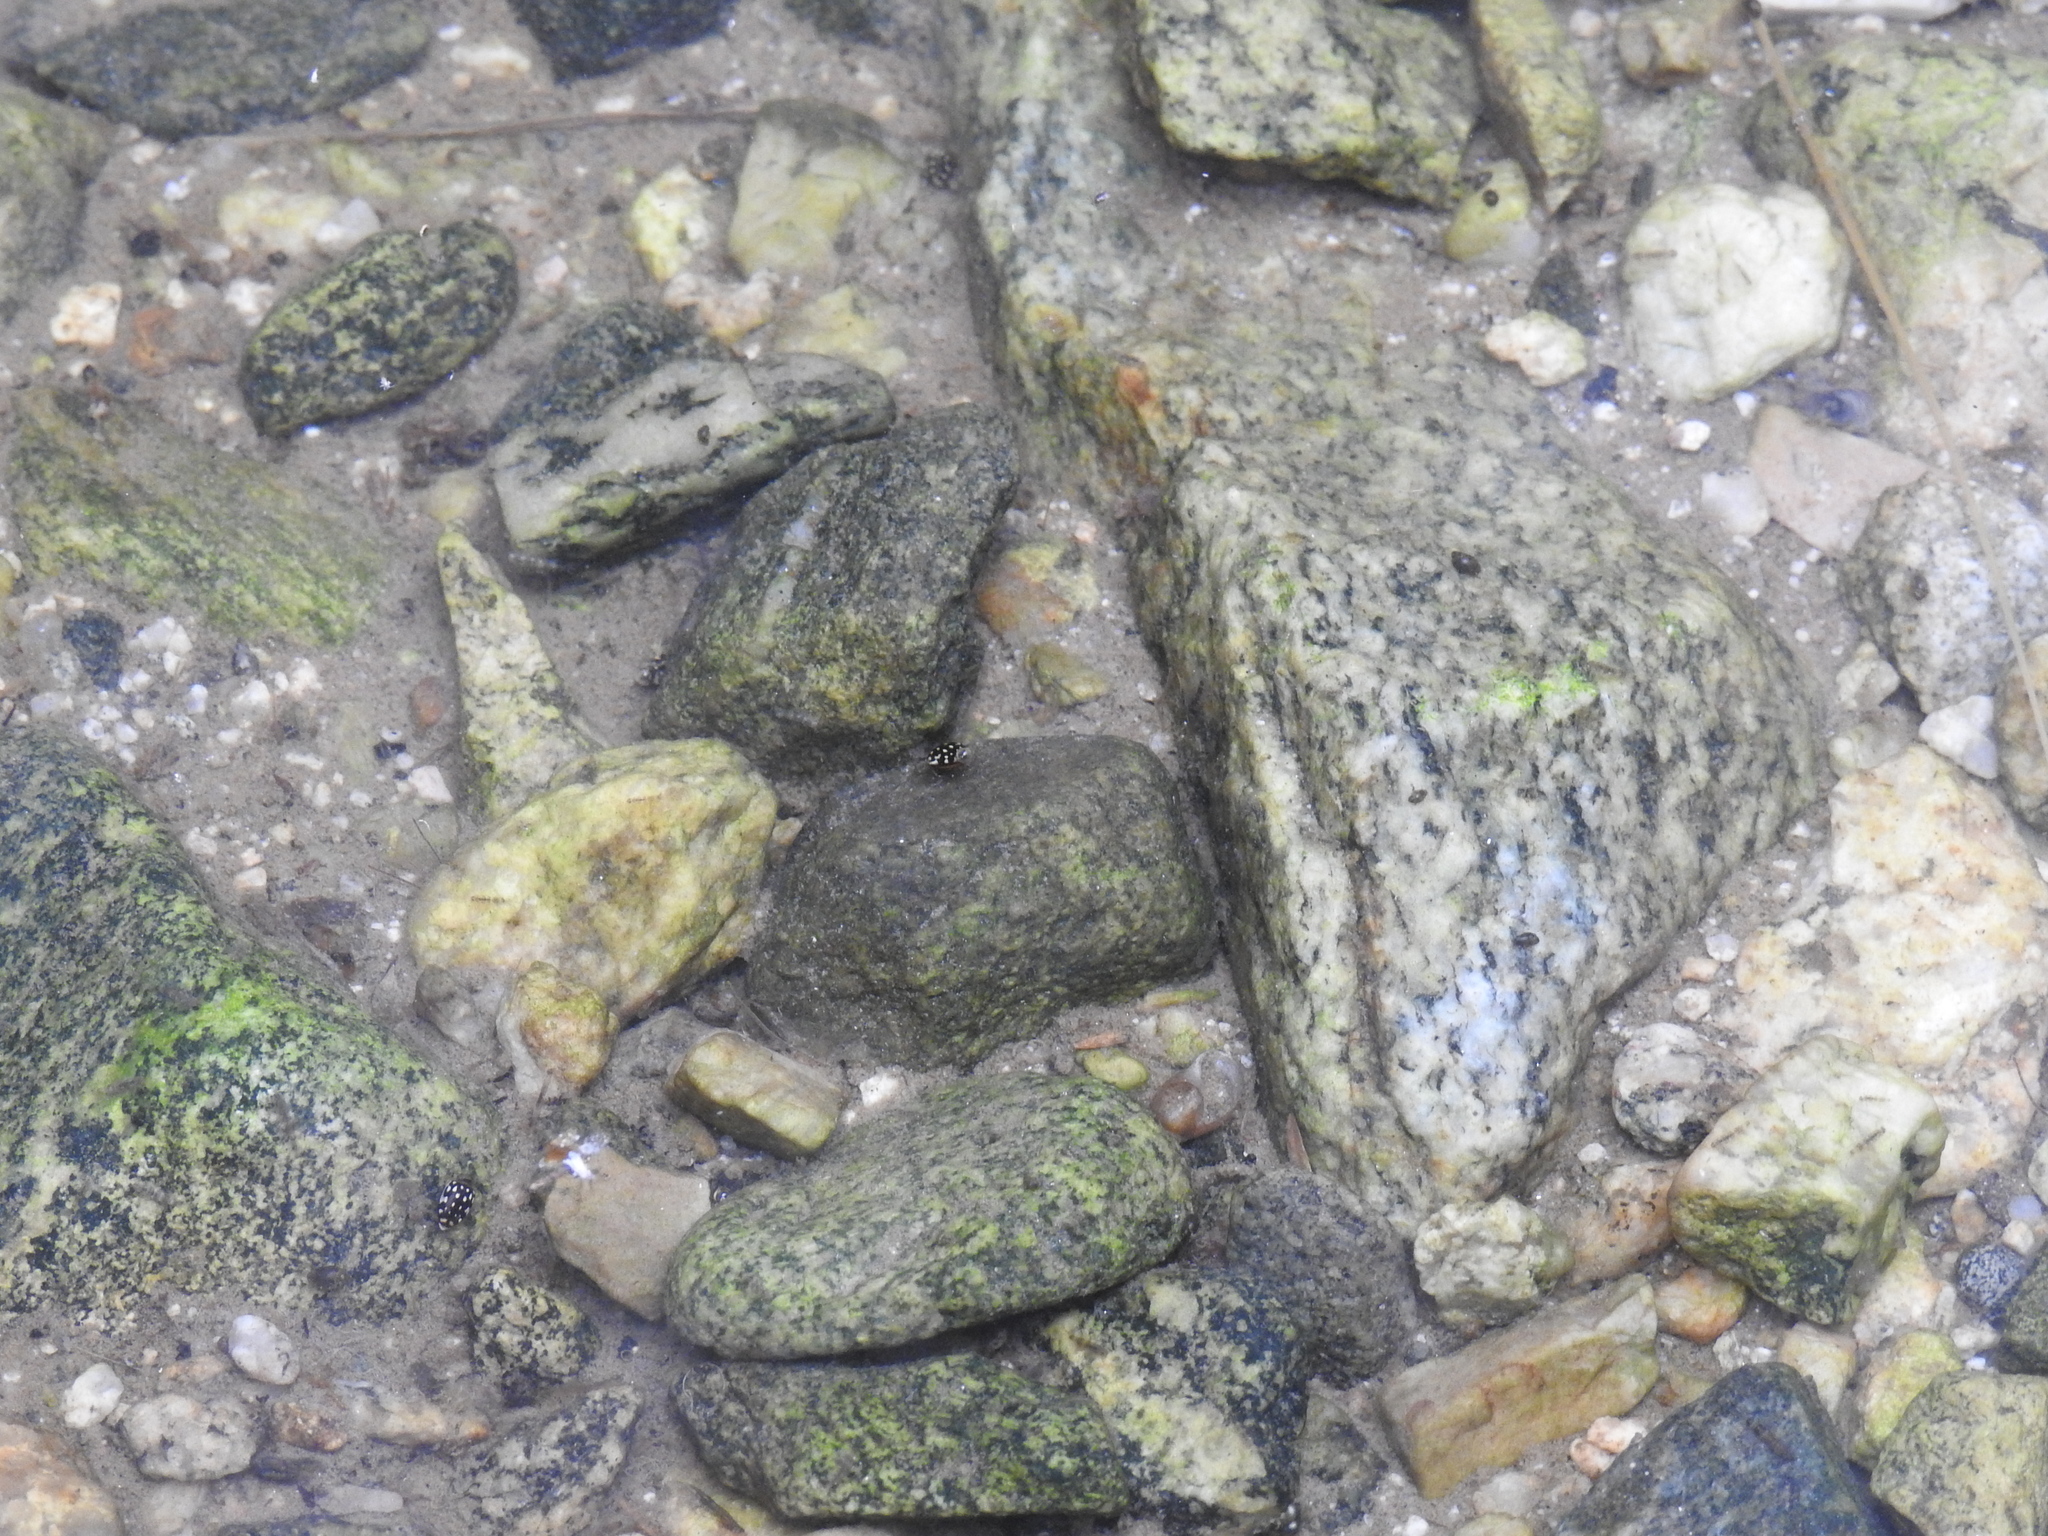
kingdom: Animalia
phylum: Arthropoda
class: Insecta
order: Coleoptera
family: Dytiscidae
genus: Laccophilus
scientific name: Laccophilus pictus
